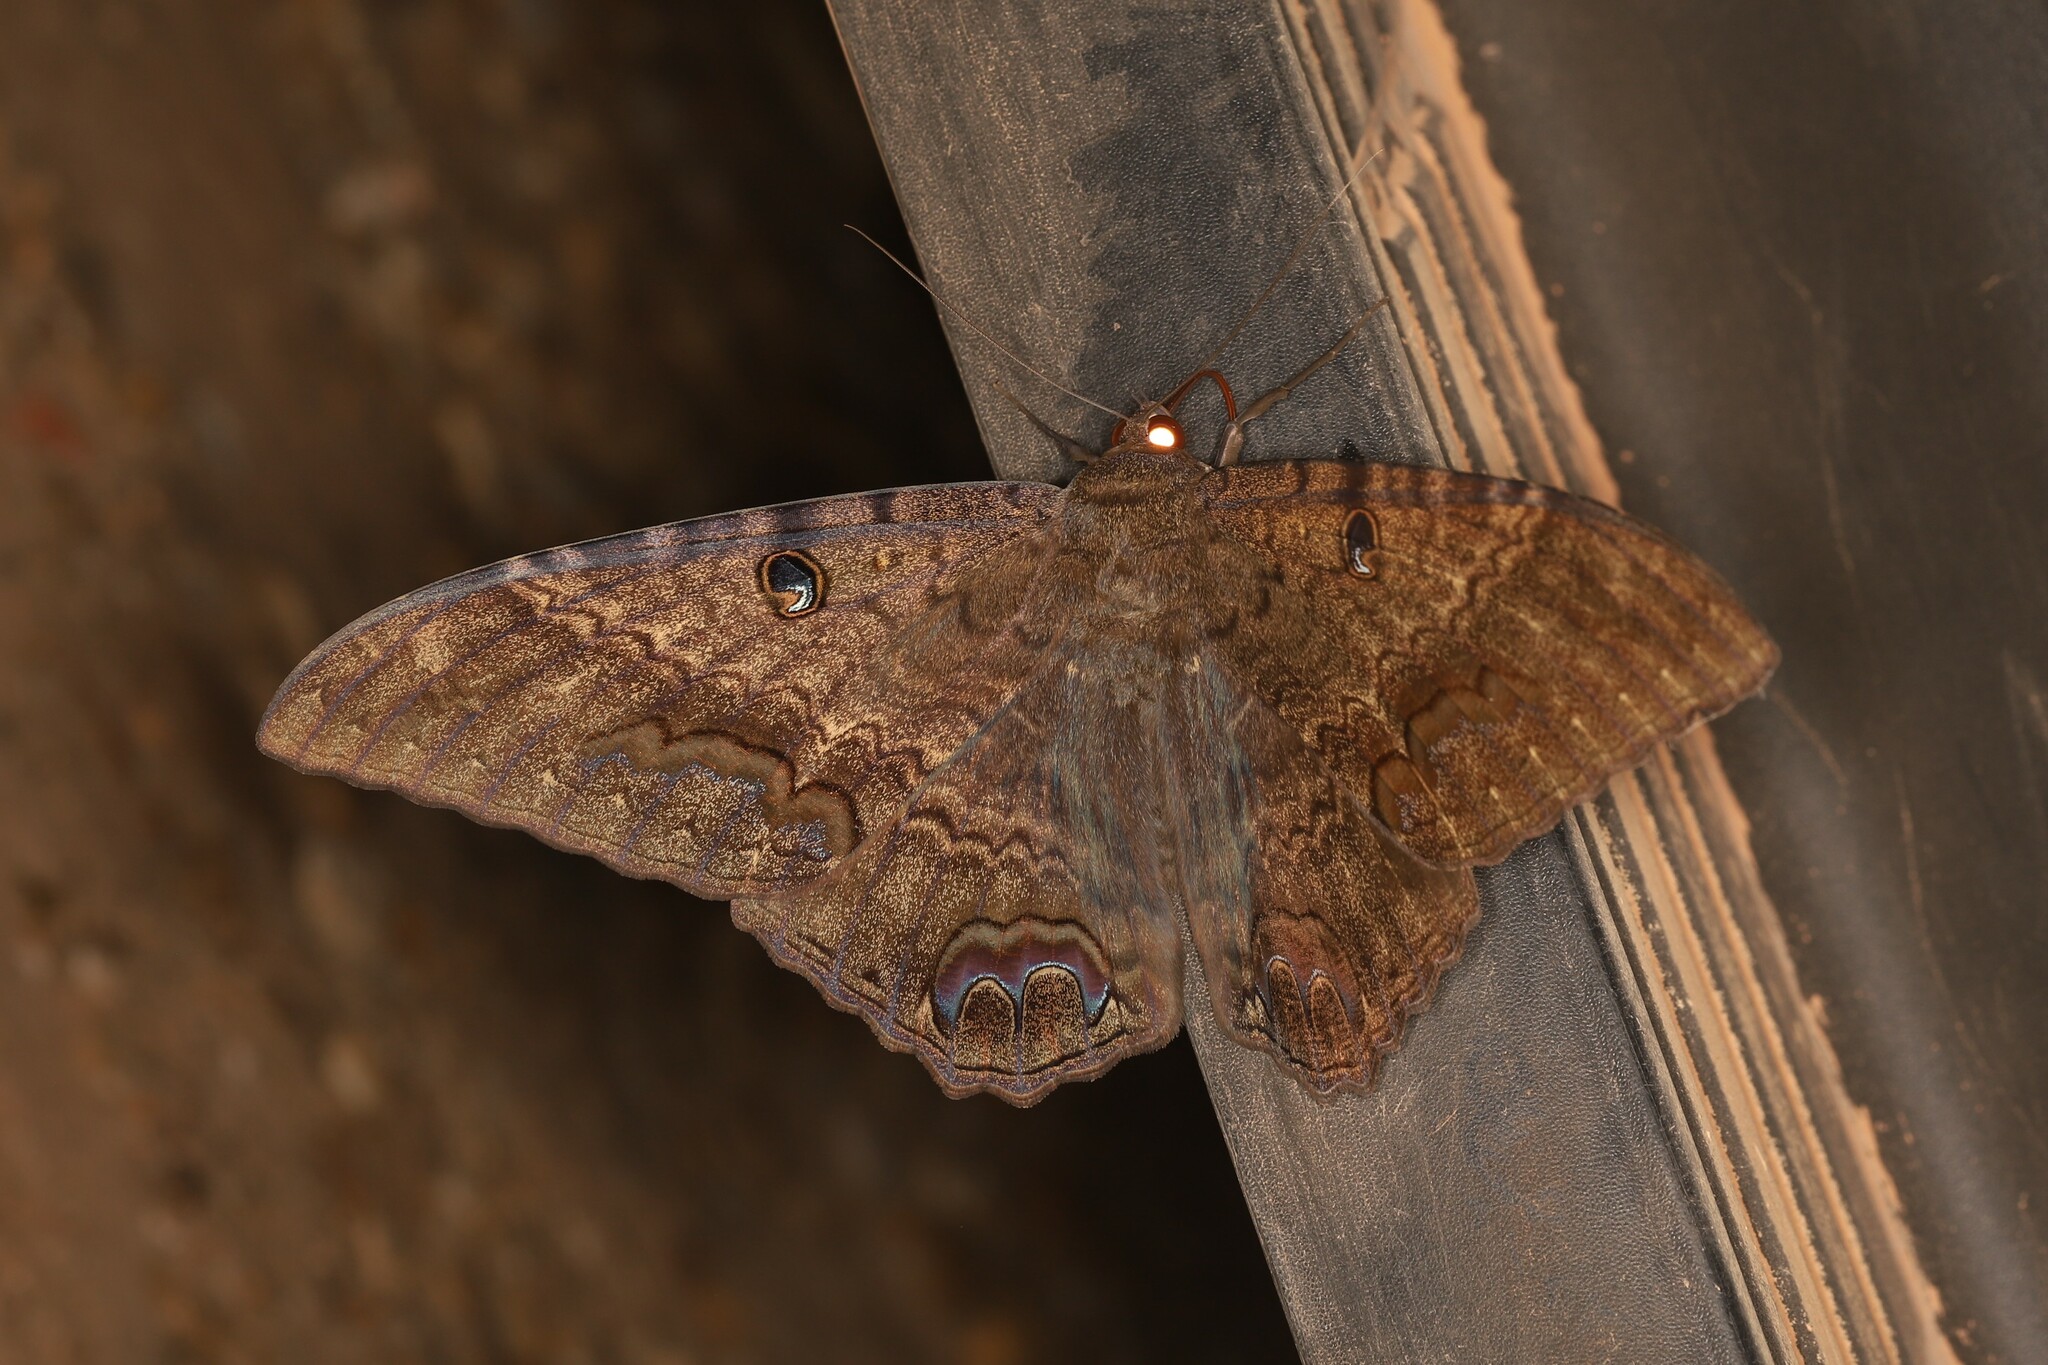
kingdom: Animalia
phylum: Arthropoda
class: Insecta
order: Lepidoptera
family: Erebidae
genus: Ascalapha
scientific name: Ascalapha odorata
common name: Black witch
